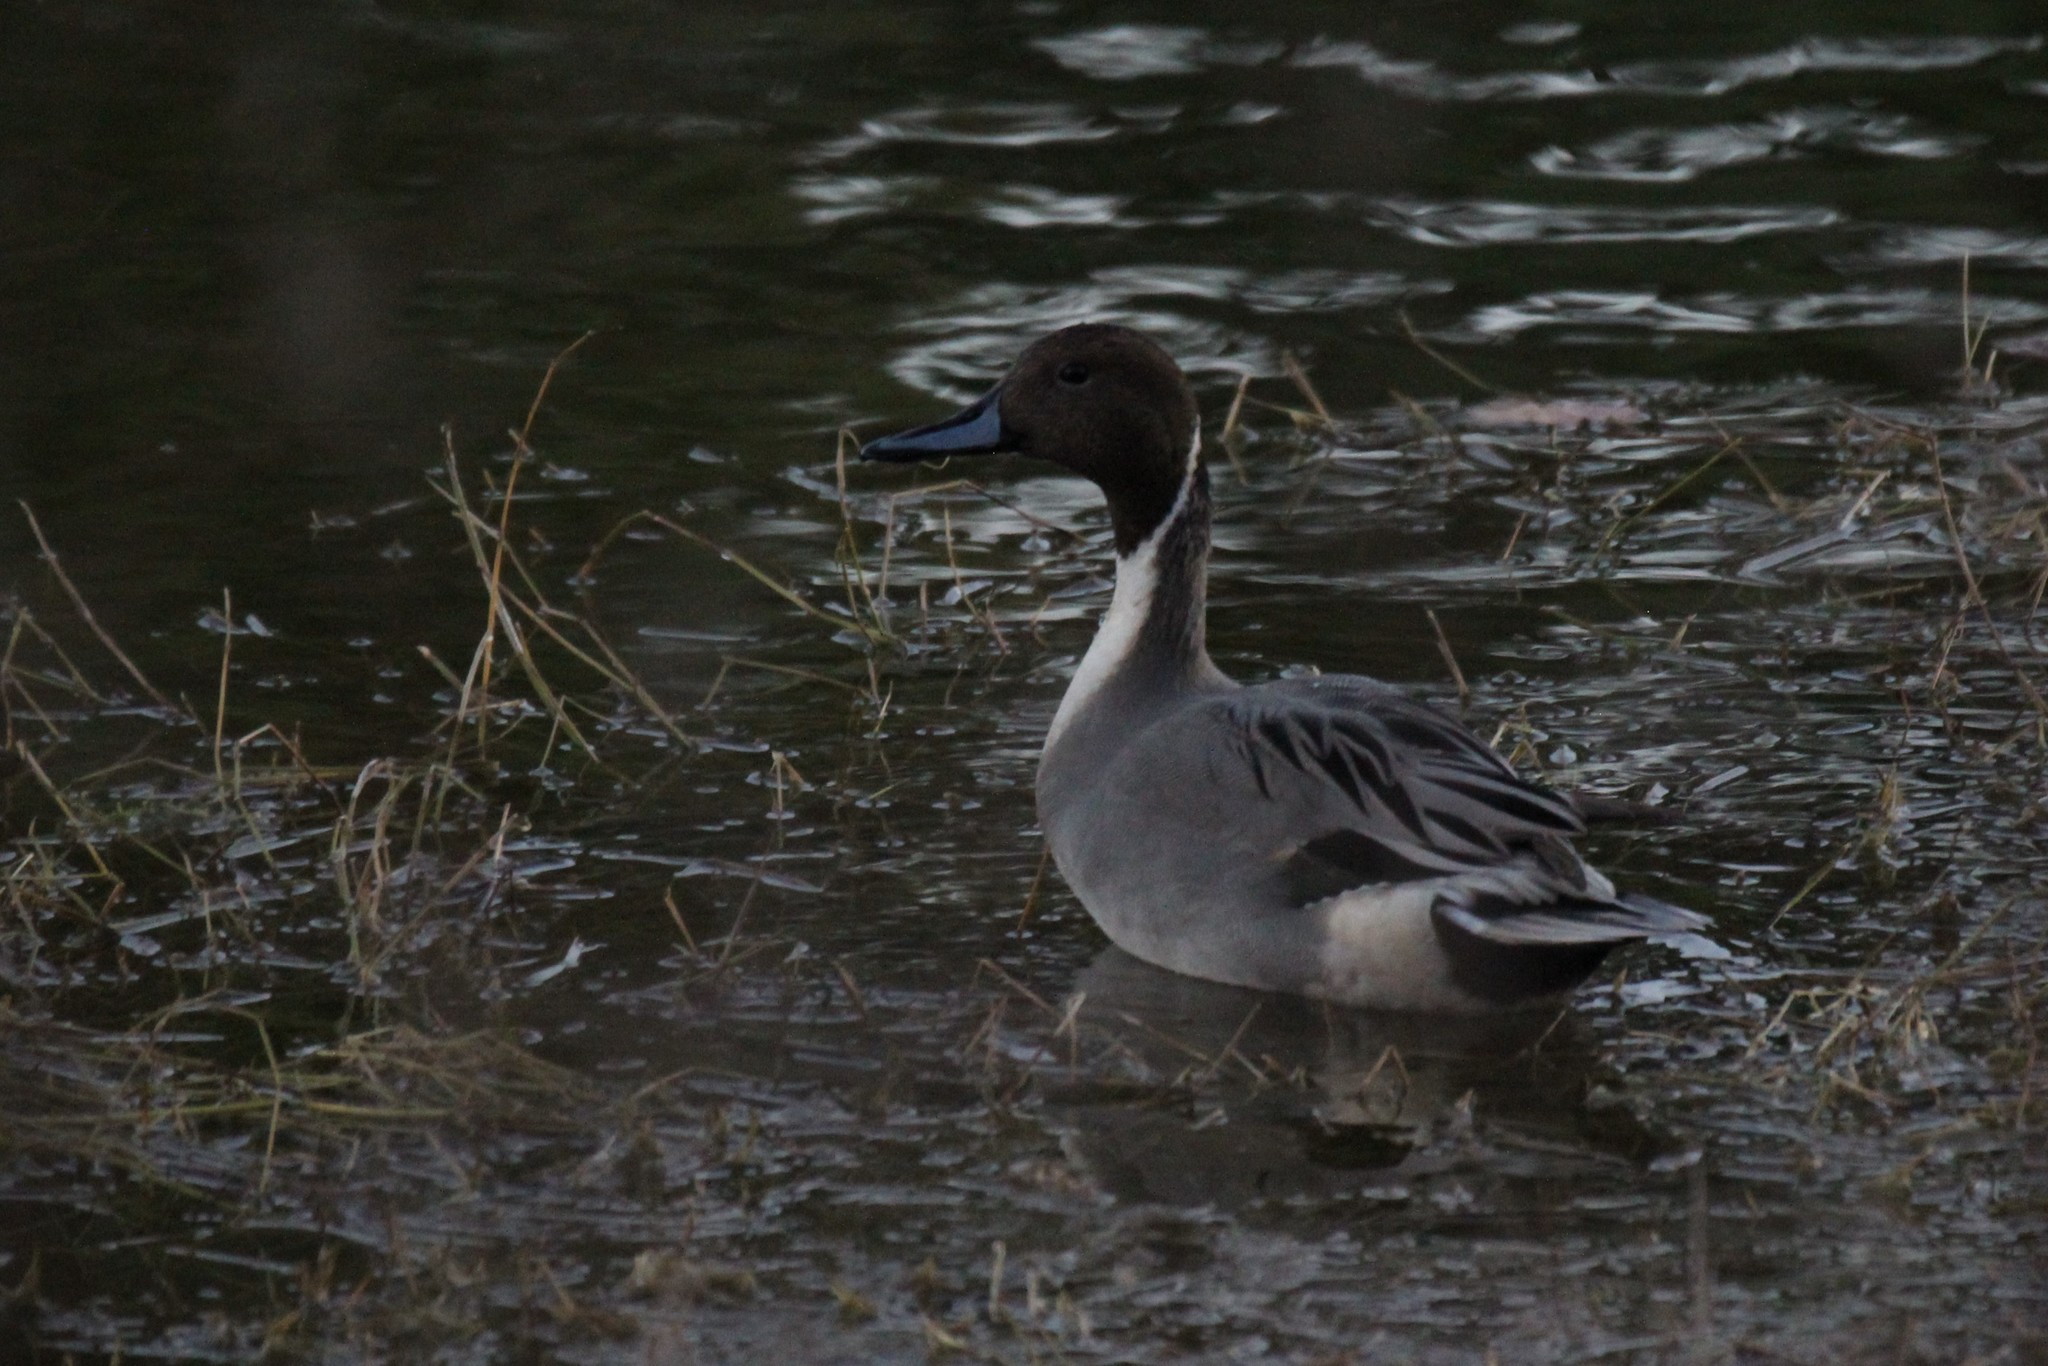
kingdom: Animalia
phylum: Chordata
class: Aves
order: Anseriformes
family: Anatidae
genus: Anas
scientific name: Anas acuta
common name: Northern pintail
